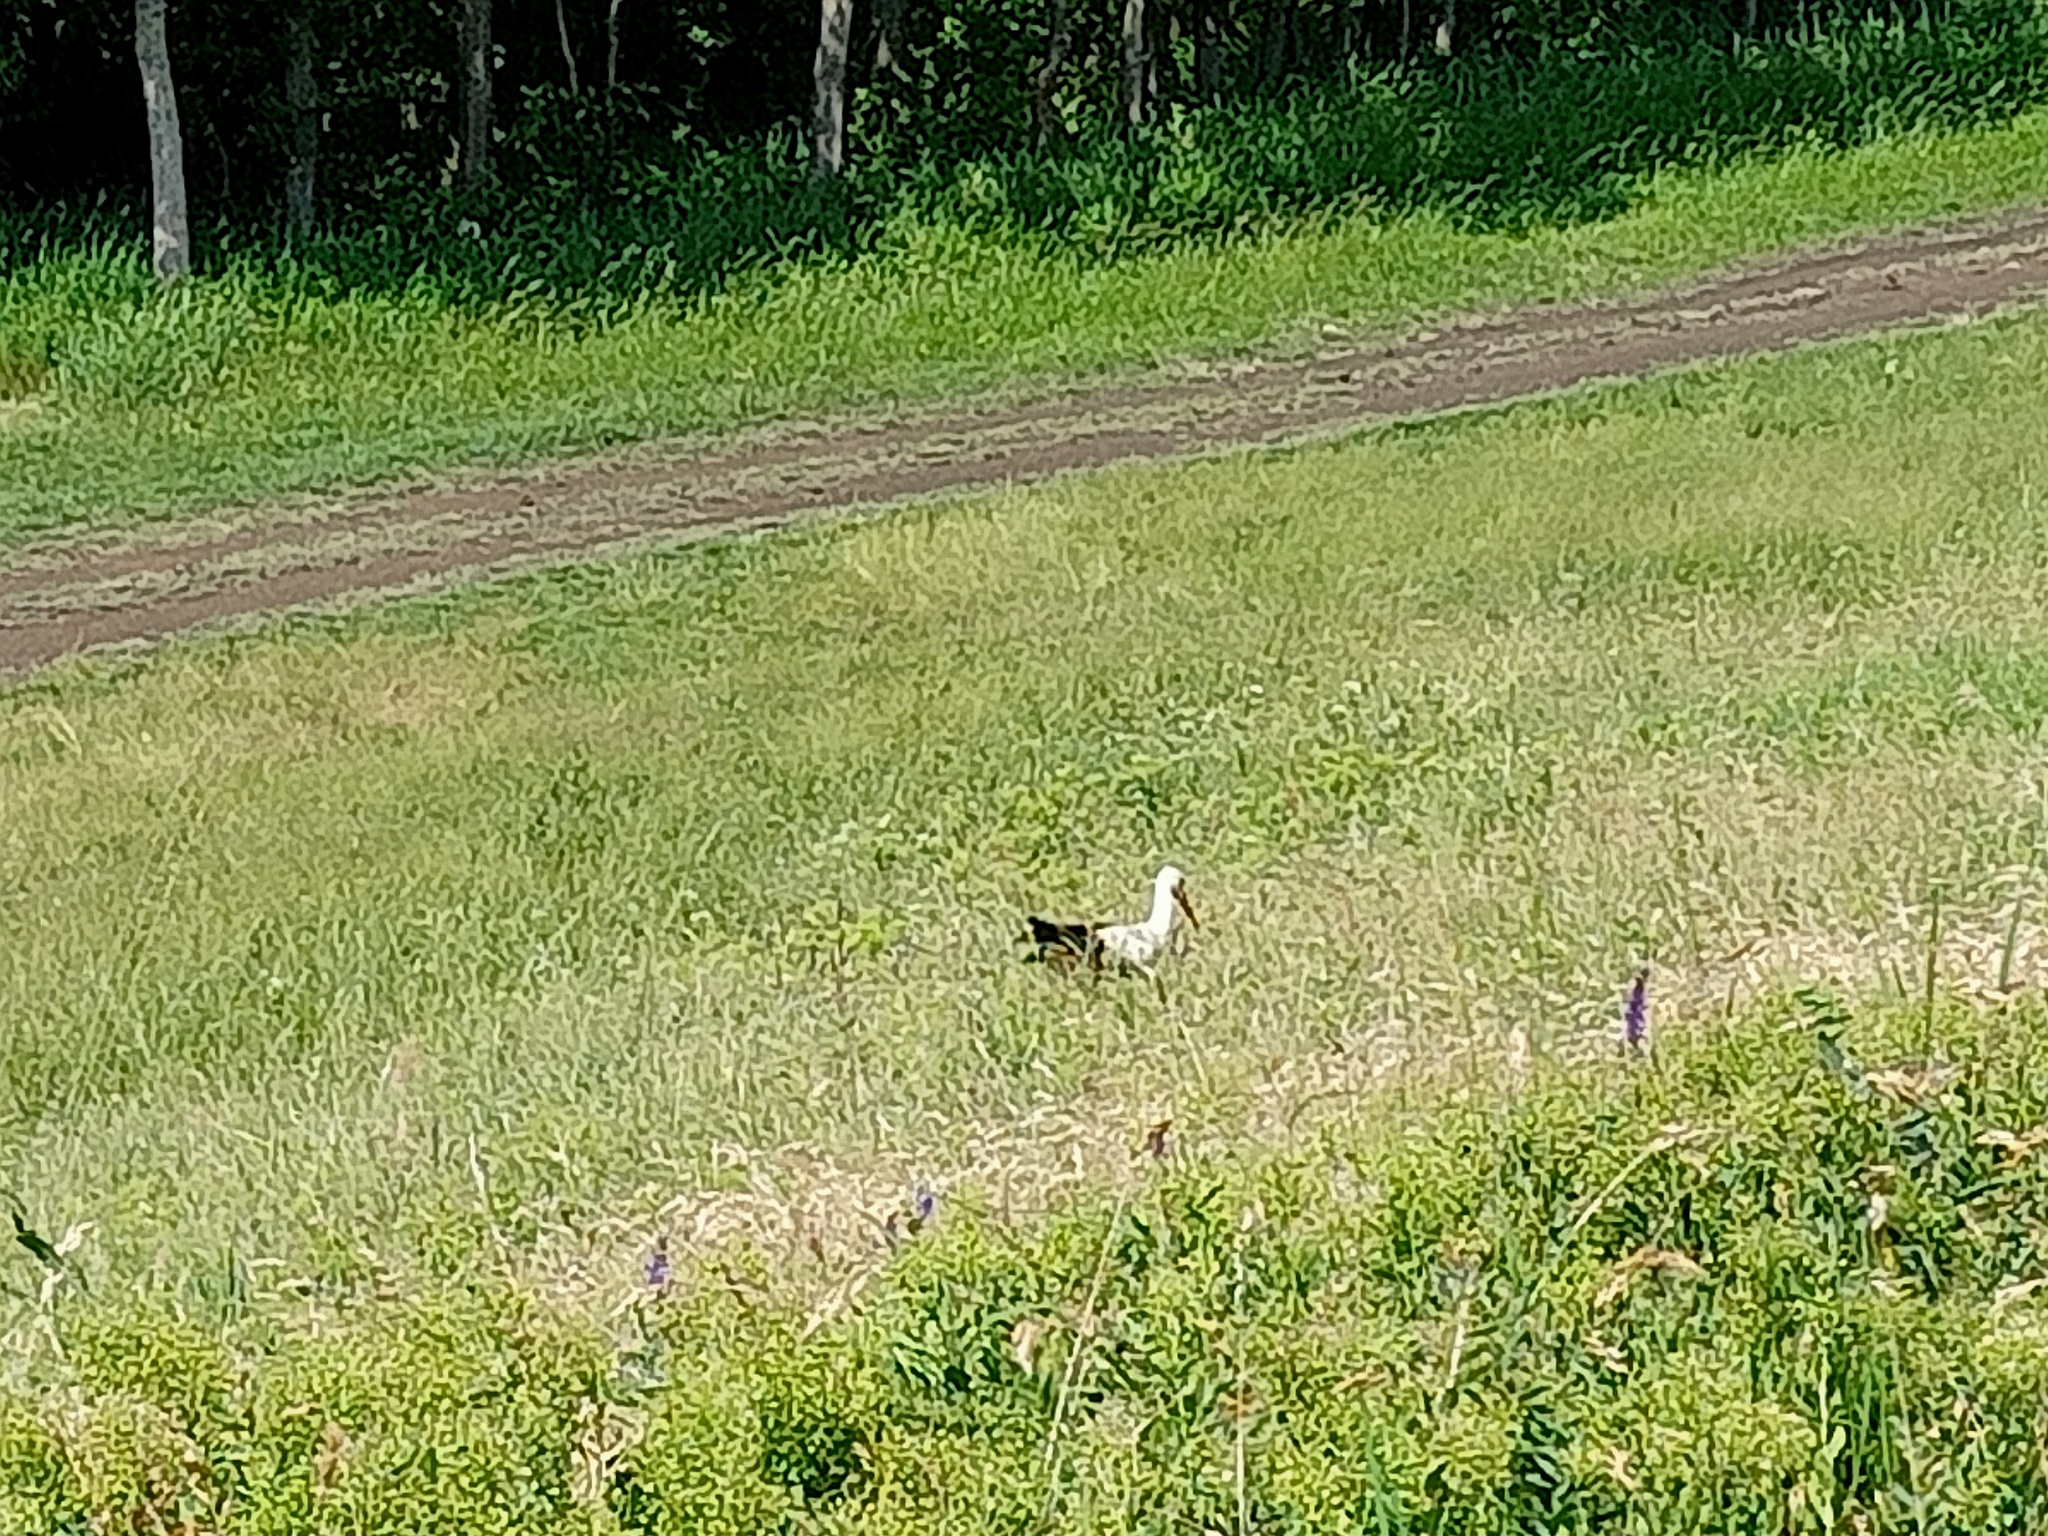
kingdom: Animalia
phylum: Chordata
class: Aves
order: Ciconiiformes
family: Ciconiidae
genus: Ciconia
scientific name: Ciconia ciconia
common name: White stork
